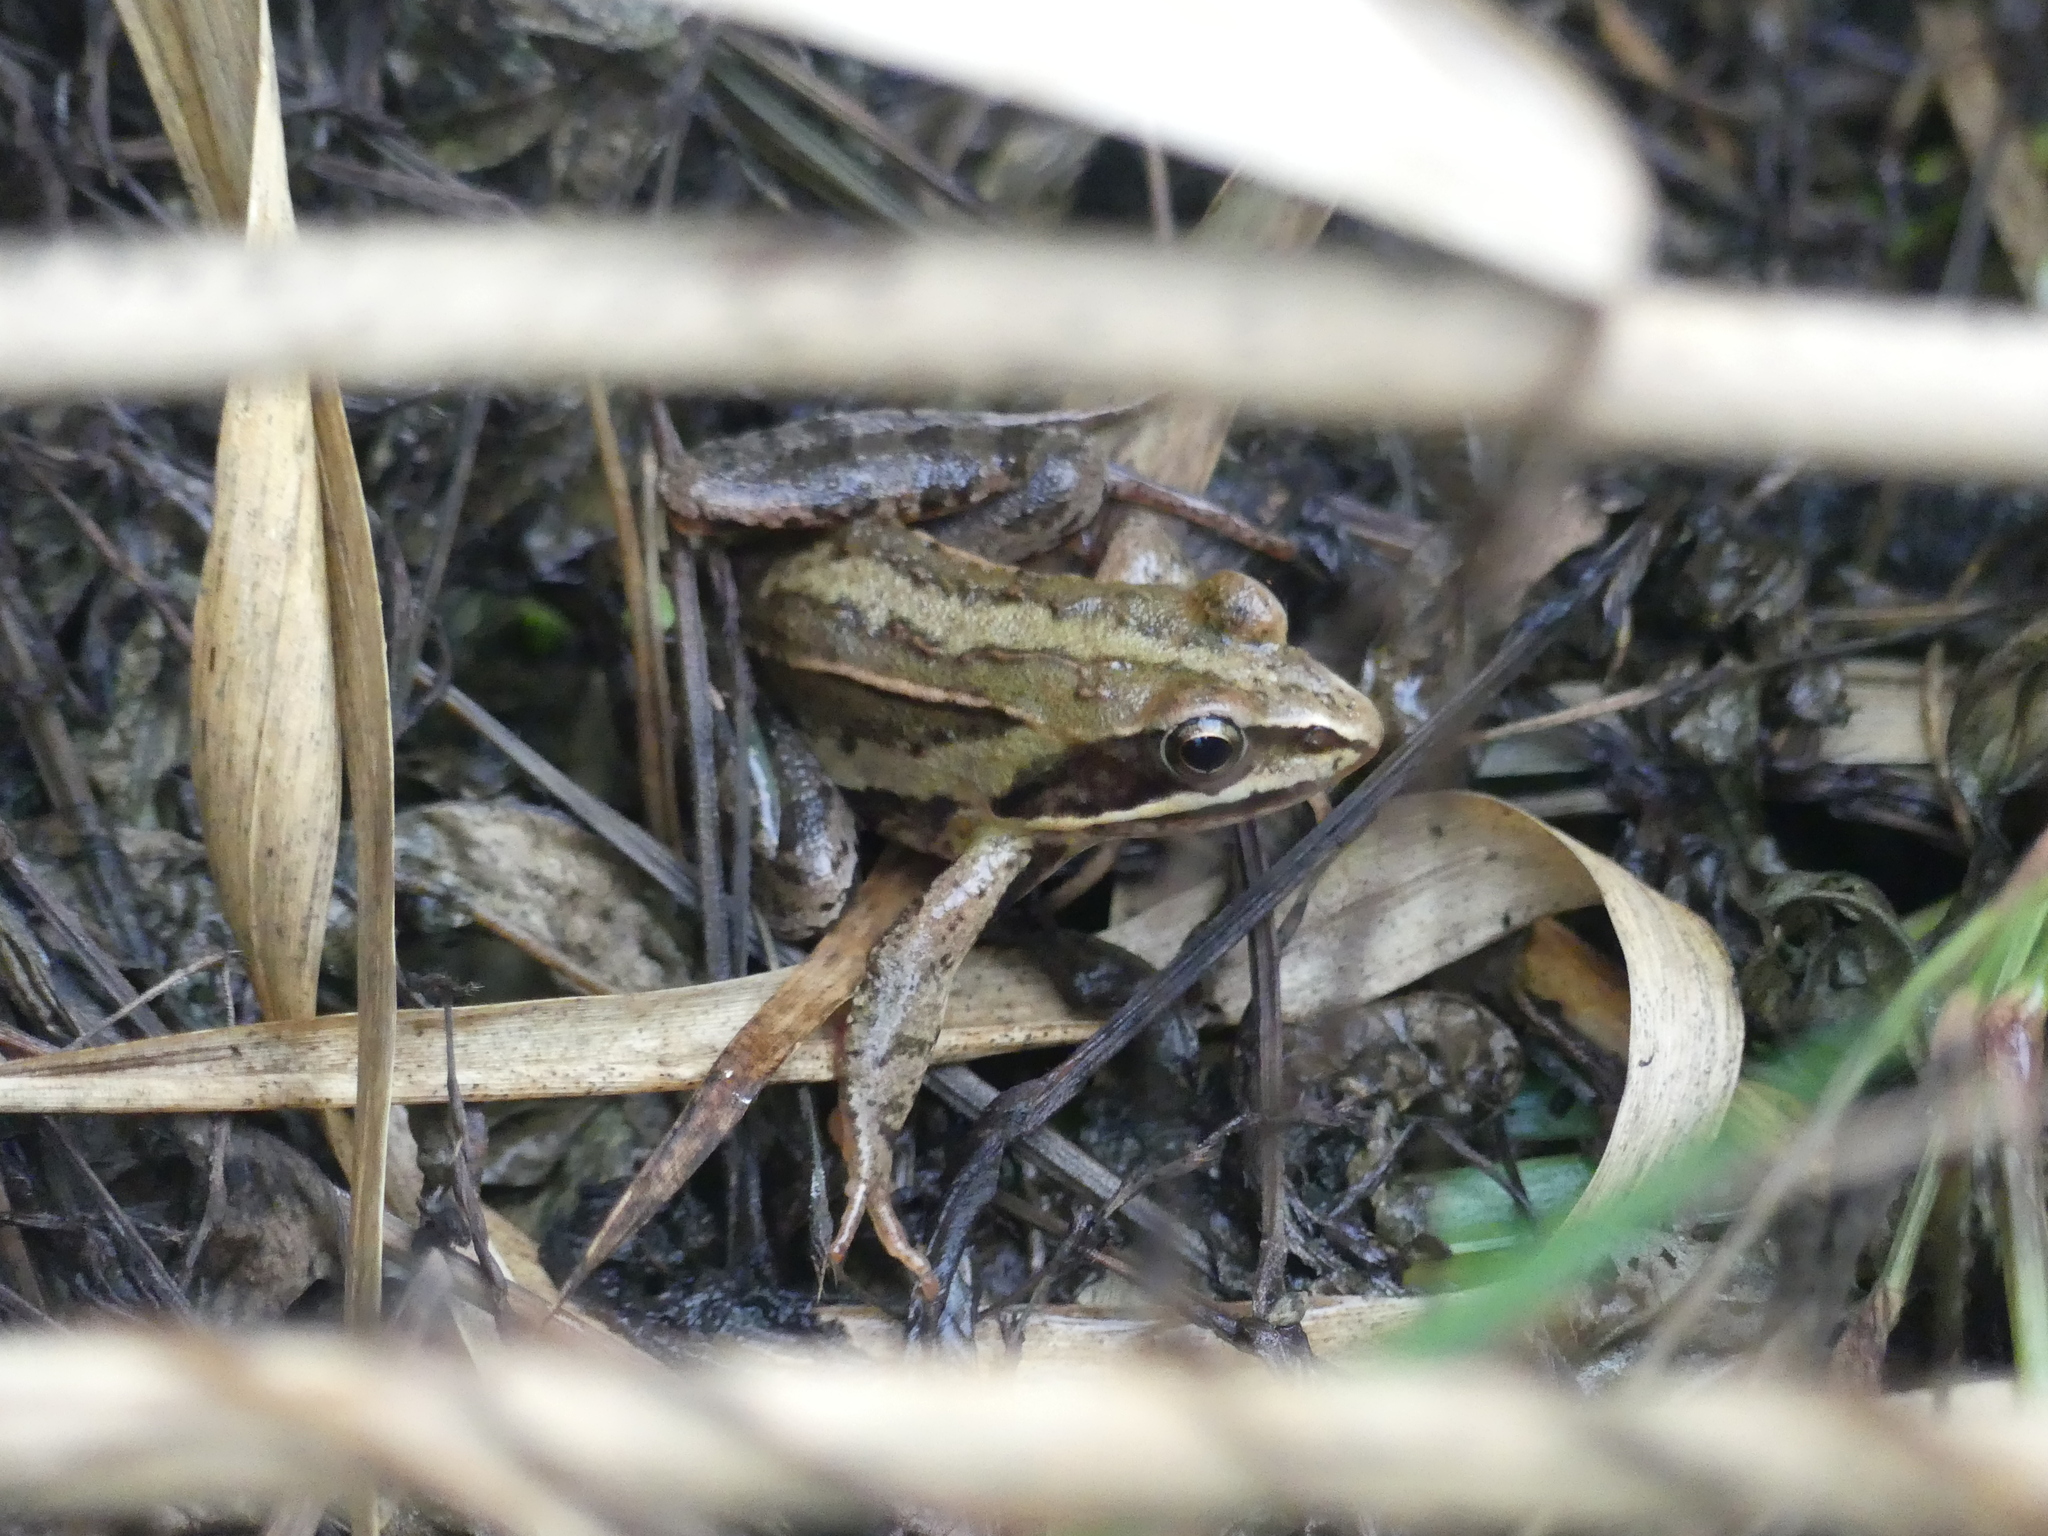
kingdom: Animalia
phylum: Chordata
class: Amphibia
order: Anura
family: Ranidae
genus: Rana
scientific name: Rana arvalis
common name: Moor frog
